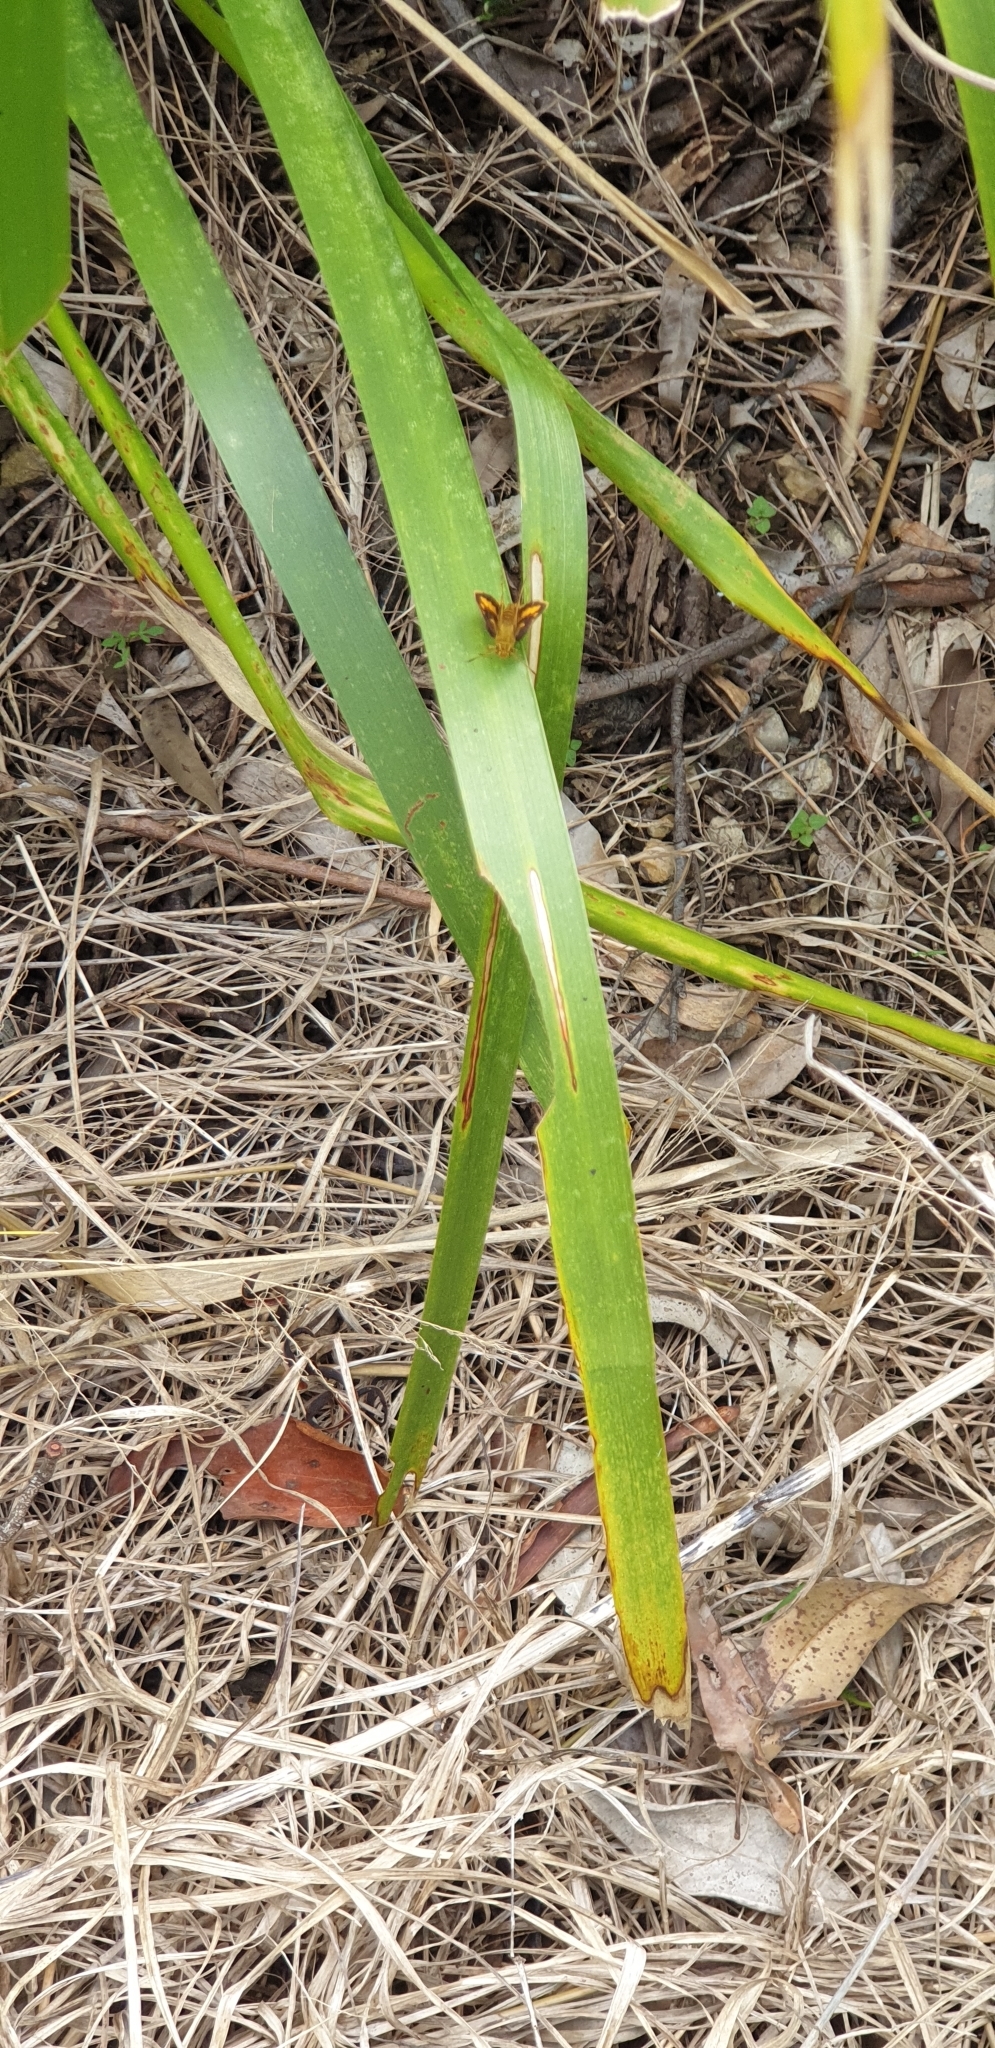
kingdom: Animalia
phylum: Arthropoda
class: Insecta
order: Lepidoptera
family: Hesperiidae
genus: Suniana
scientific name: Suniana sunias
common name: Wide-brand grass-dart
